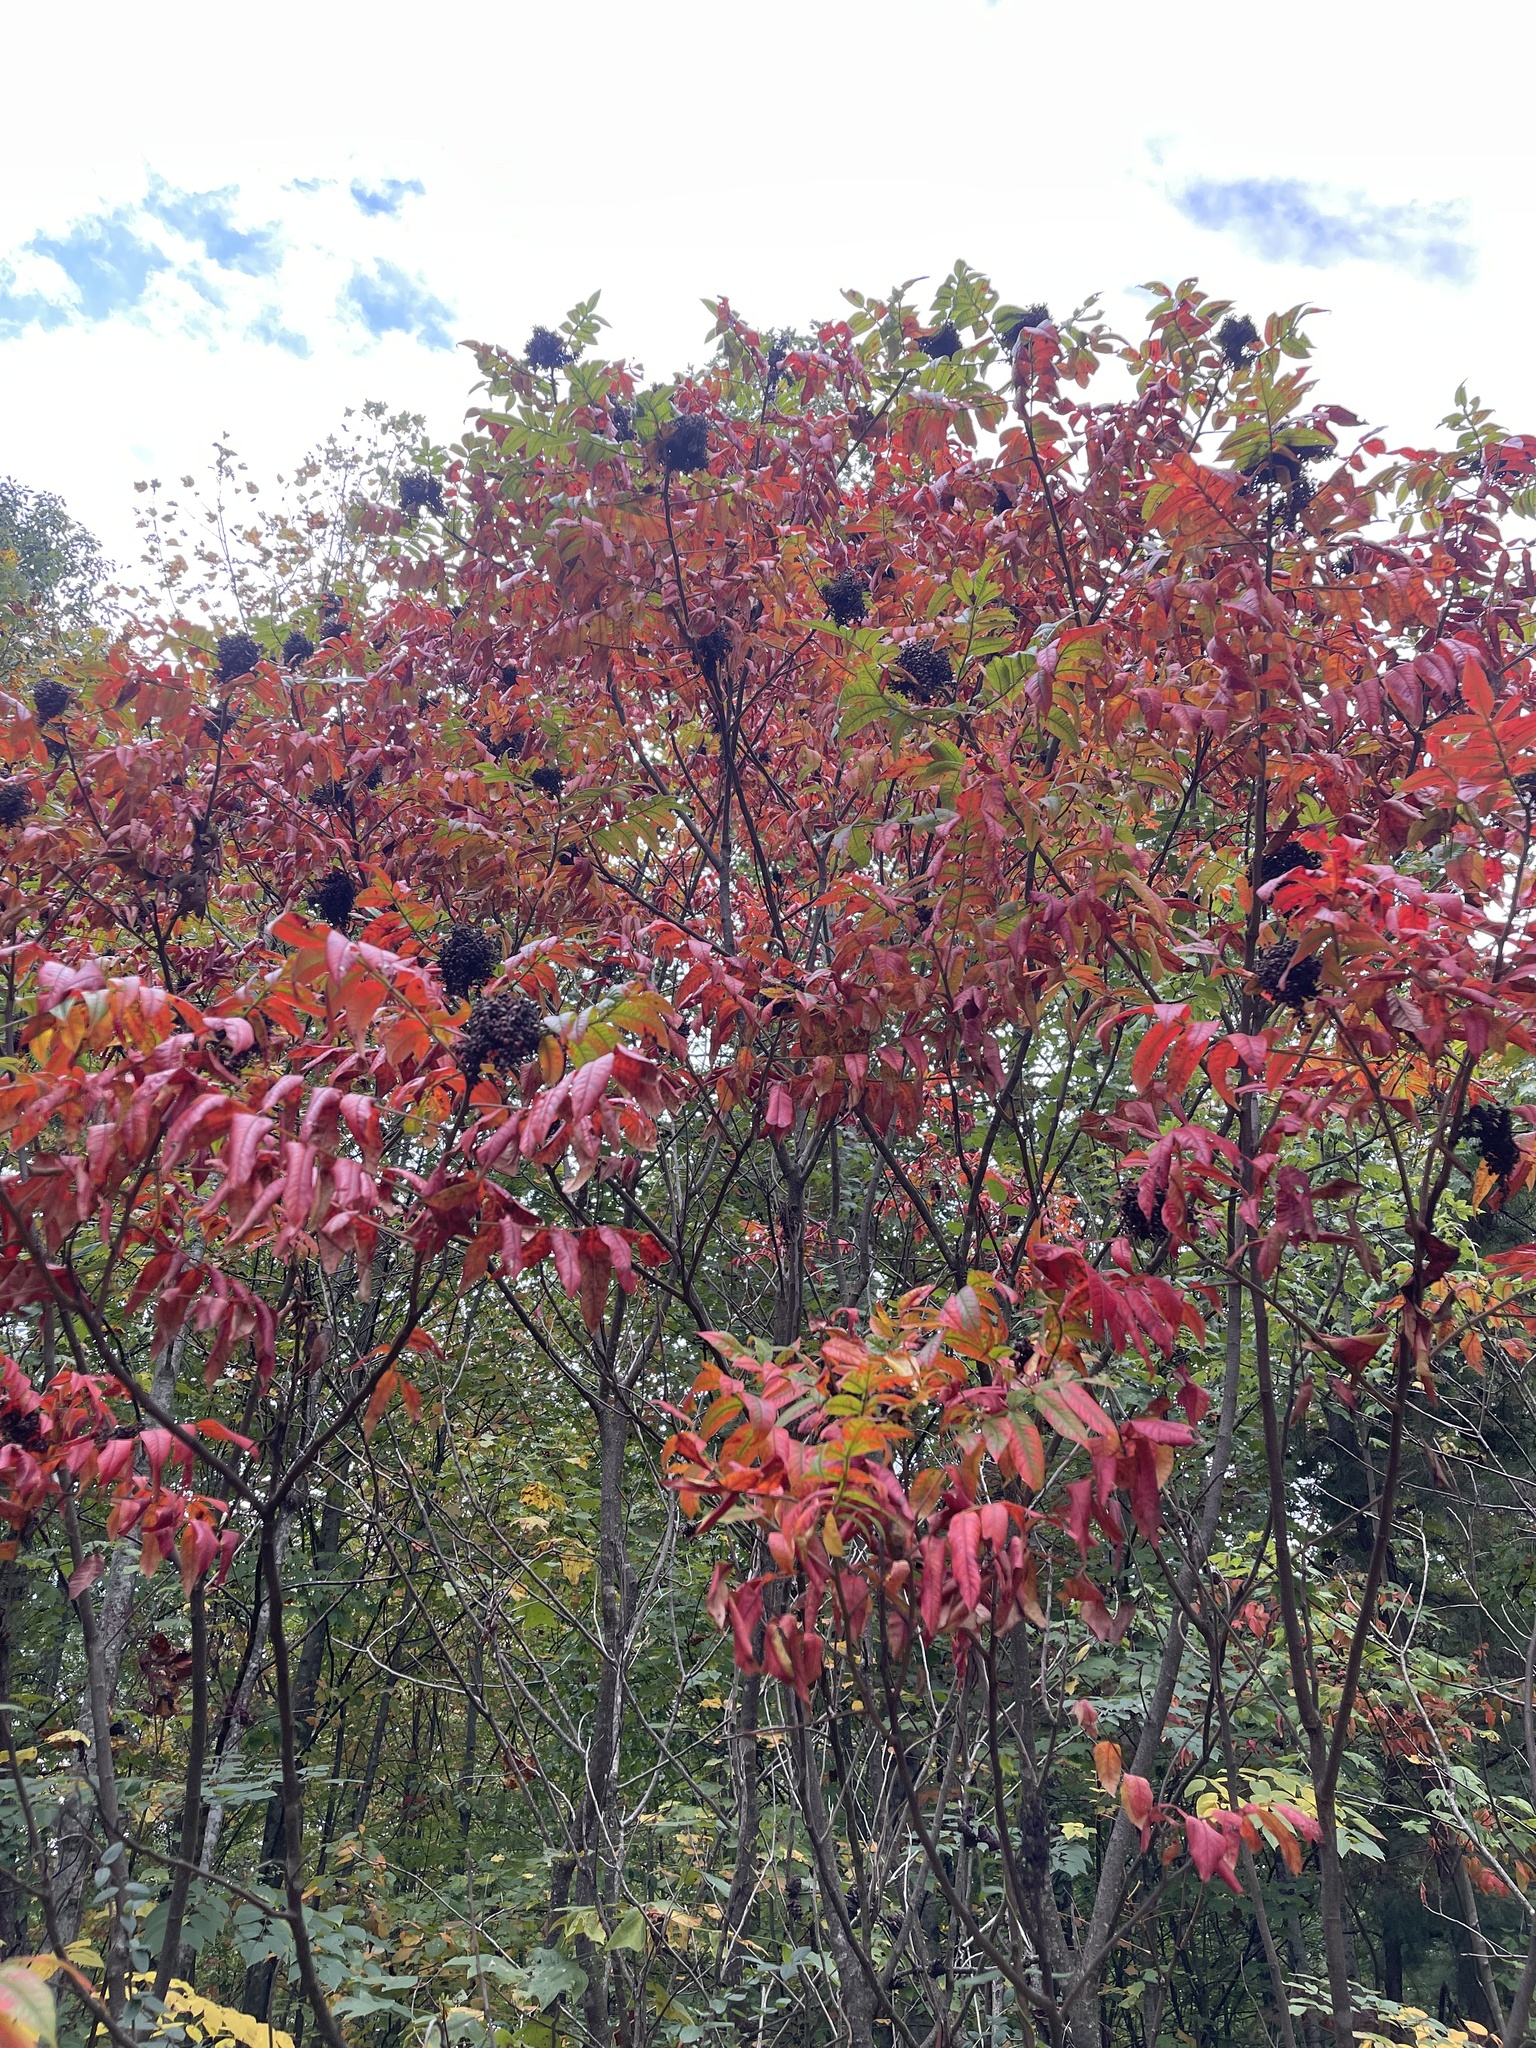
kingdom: Plantae
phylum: Tracheophyta
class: Magnoliopsida
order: Sapindales
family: Anacardiaceae
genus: Rhus
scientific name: Rhus copallina
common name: Shining sumac
